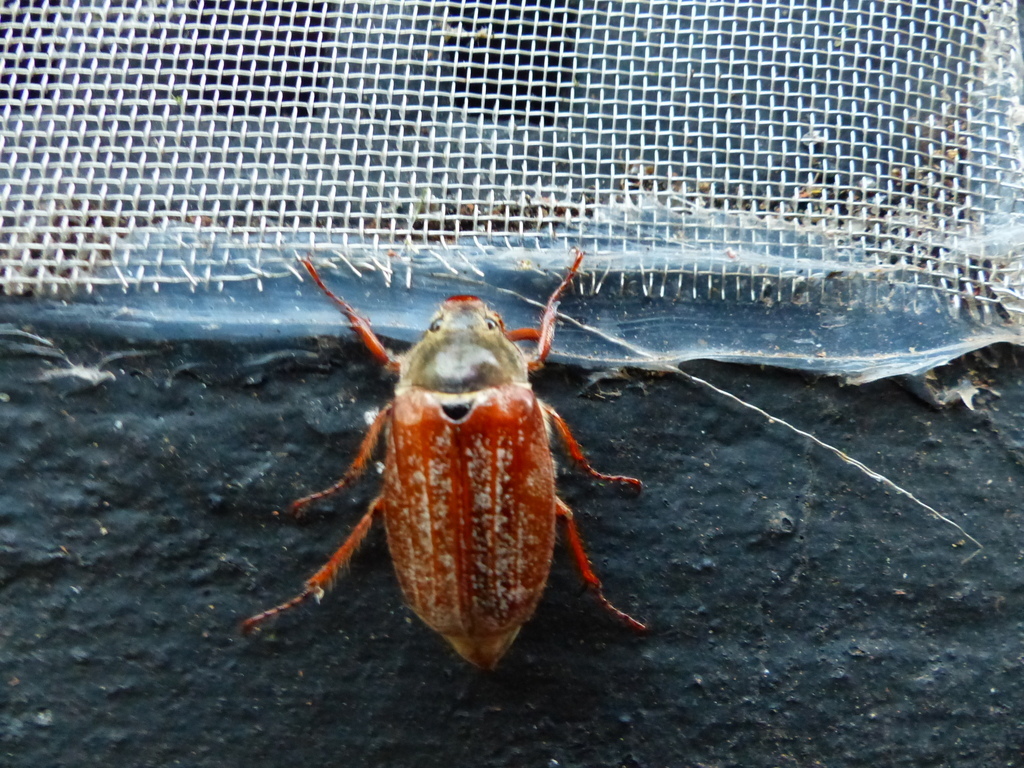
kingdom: Animalia
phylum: Arthropoda
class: Insecta
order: Coleoptera
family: Scarabaeidae
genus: Melolontha
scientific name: Melolontha melolontha
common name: Cockchafer maybeetle
